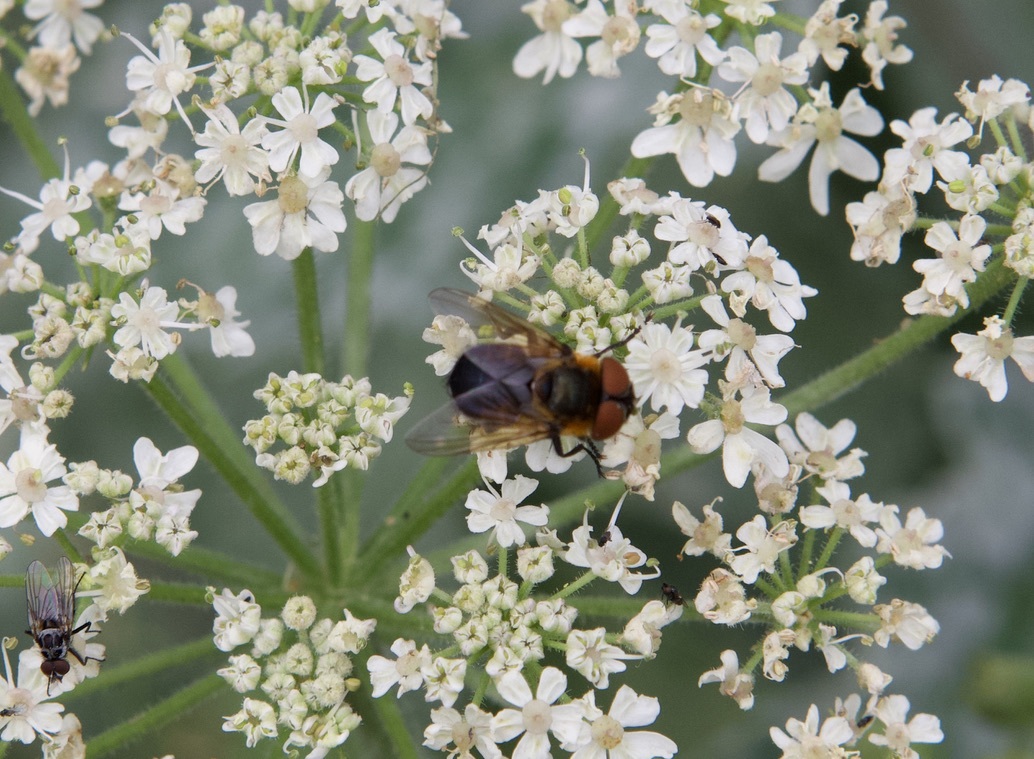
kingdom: Animalia
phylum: Arthropoda
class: Insecta
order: Diptera
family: Tachinidae
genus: Phasia
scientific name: Phasia hemiptera
